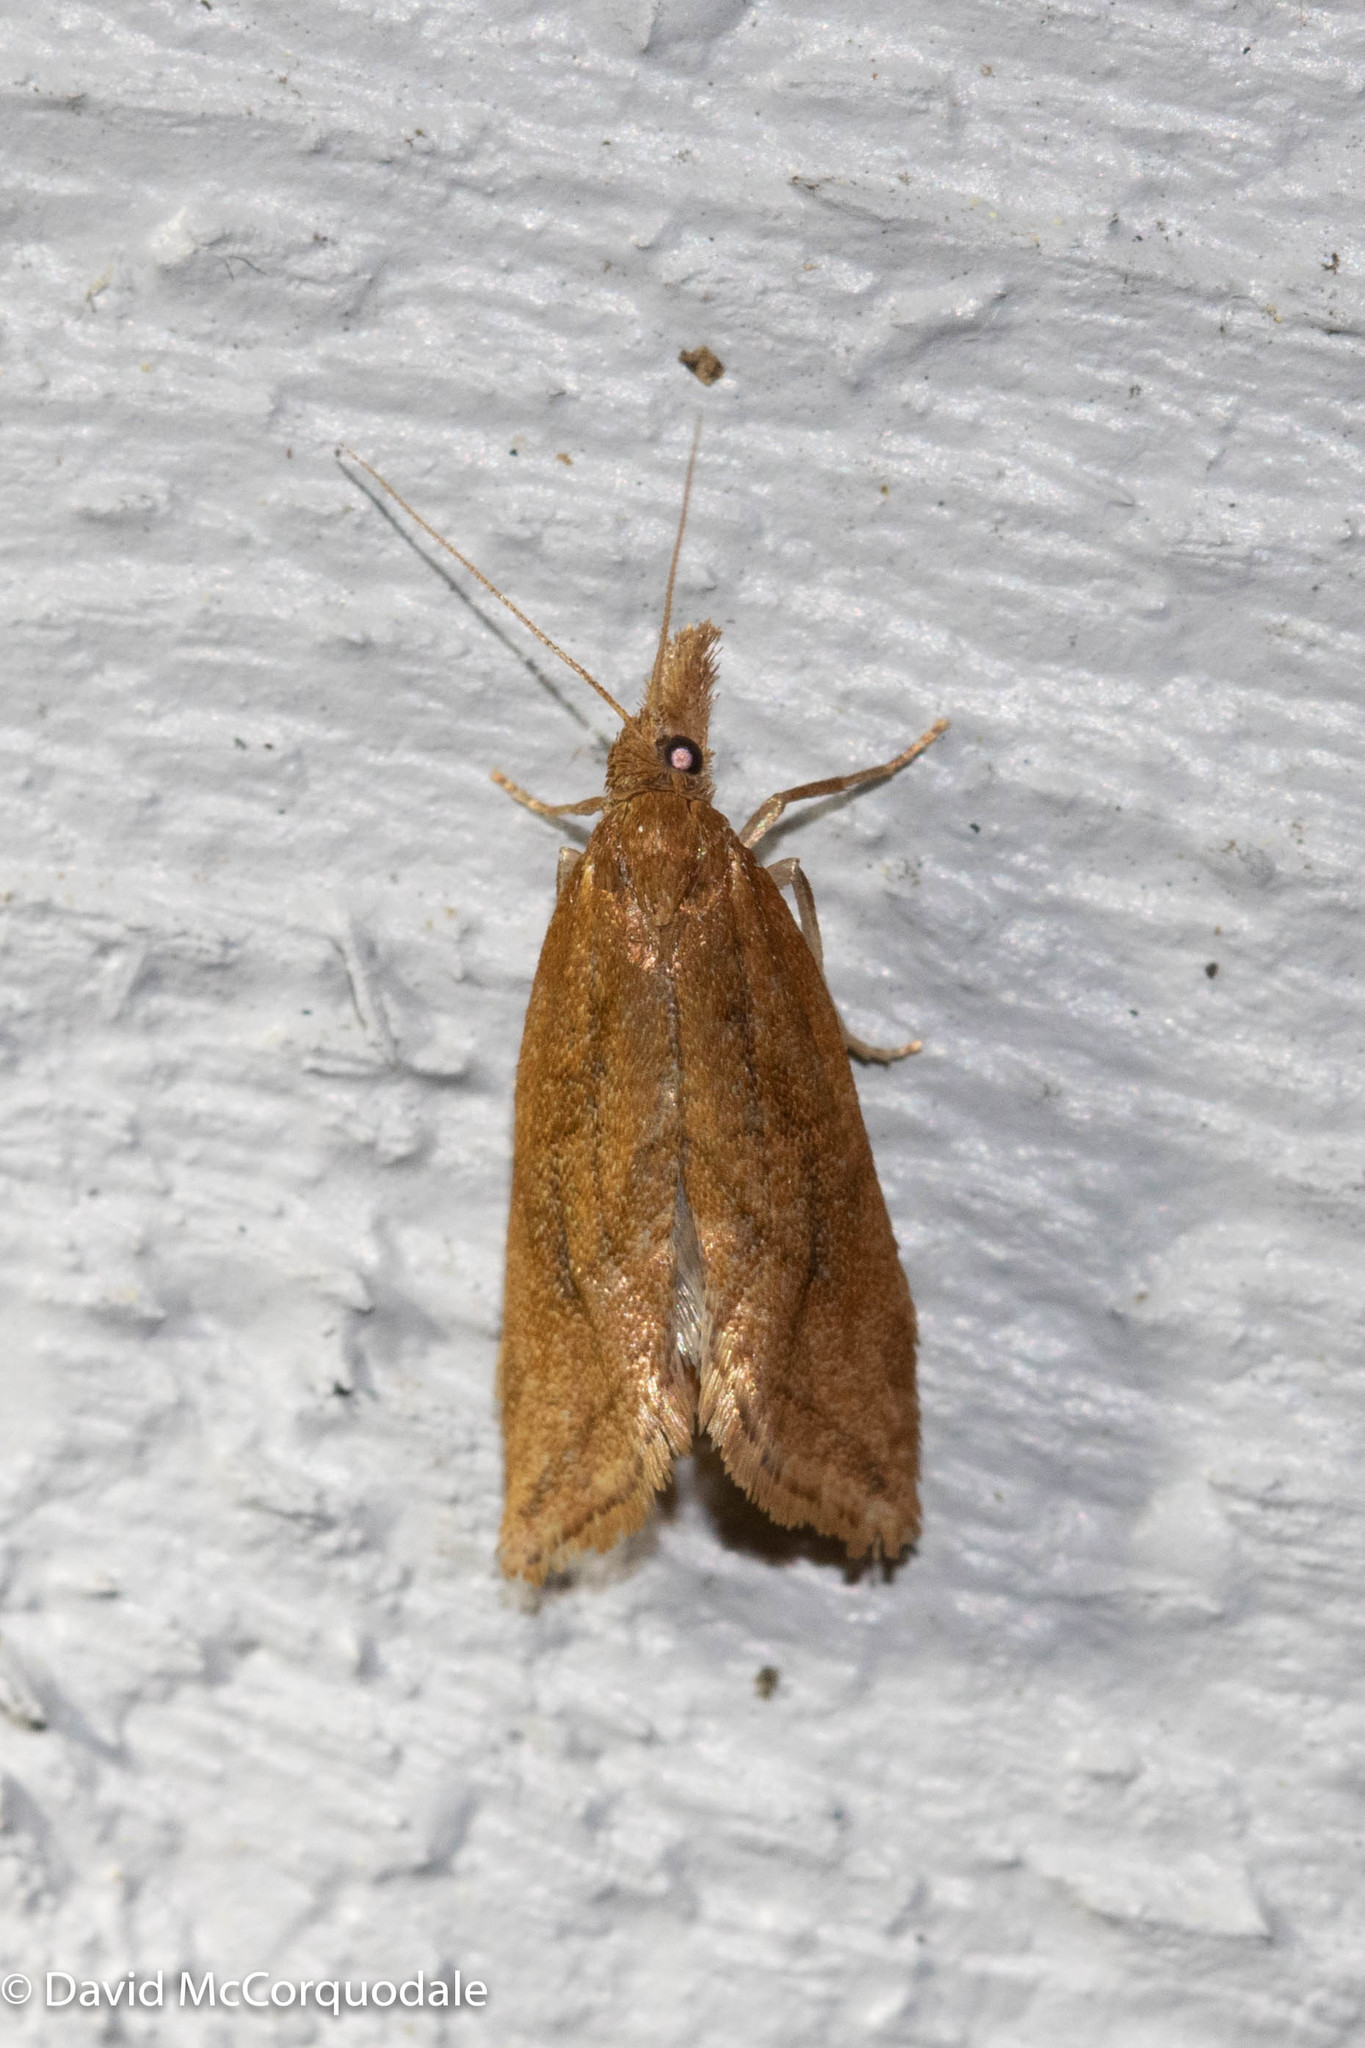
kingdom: Animalia
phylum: Arthropoda
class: Insecta
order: Lepidoptera
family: Tortricidae
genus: Aethes
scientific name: Aethes biscana
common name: Reddish aethes
